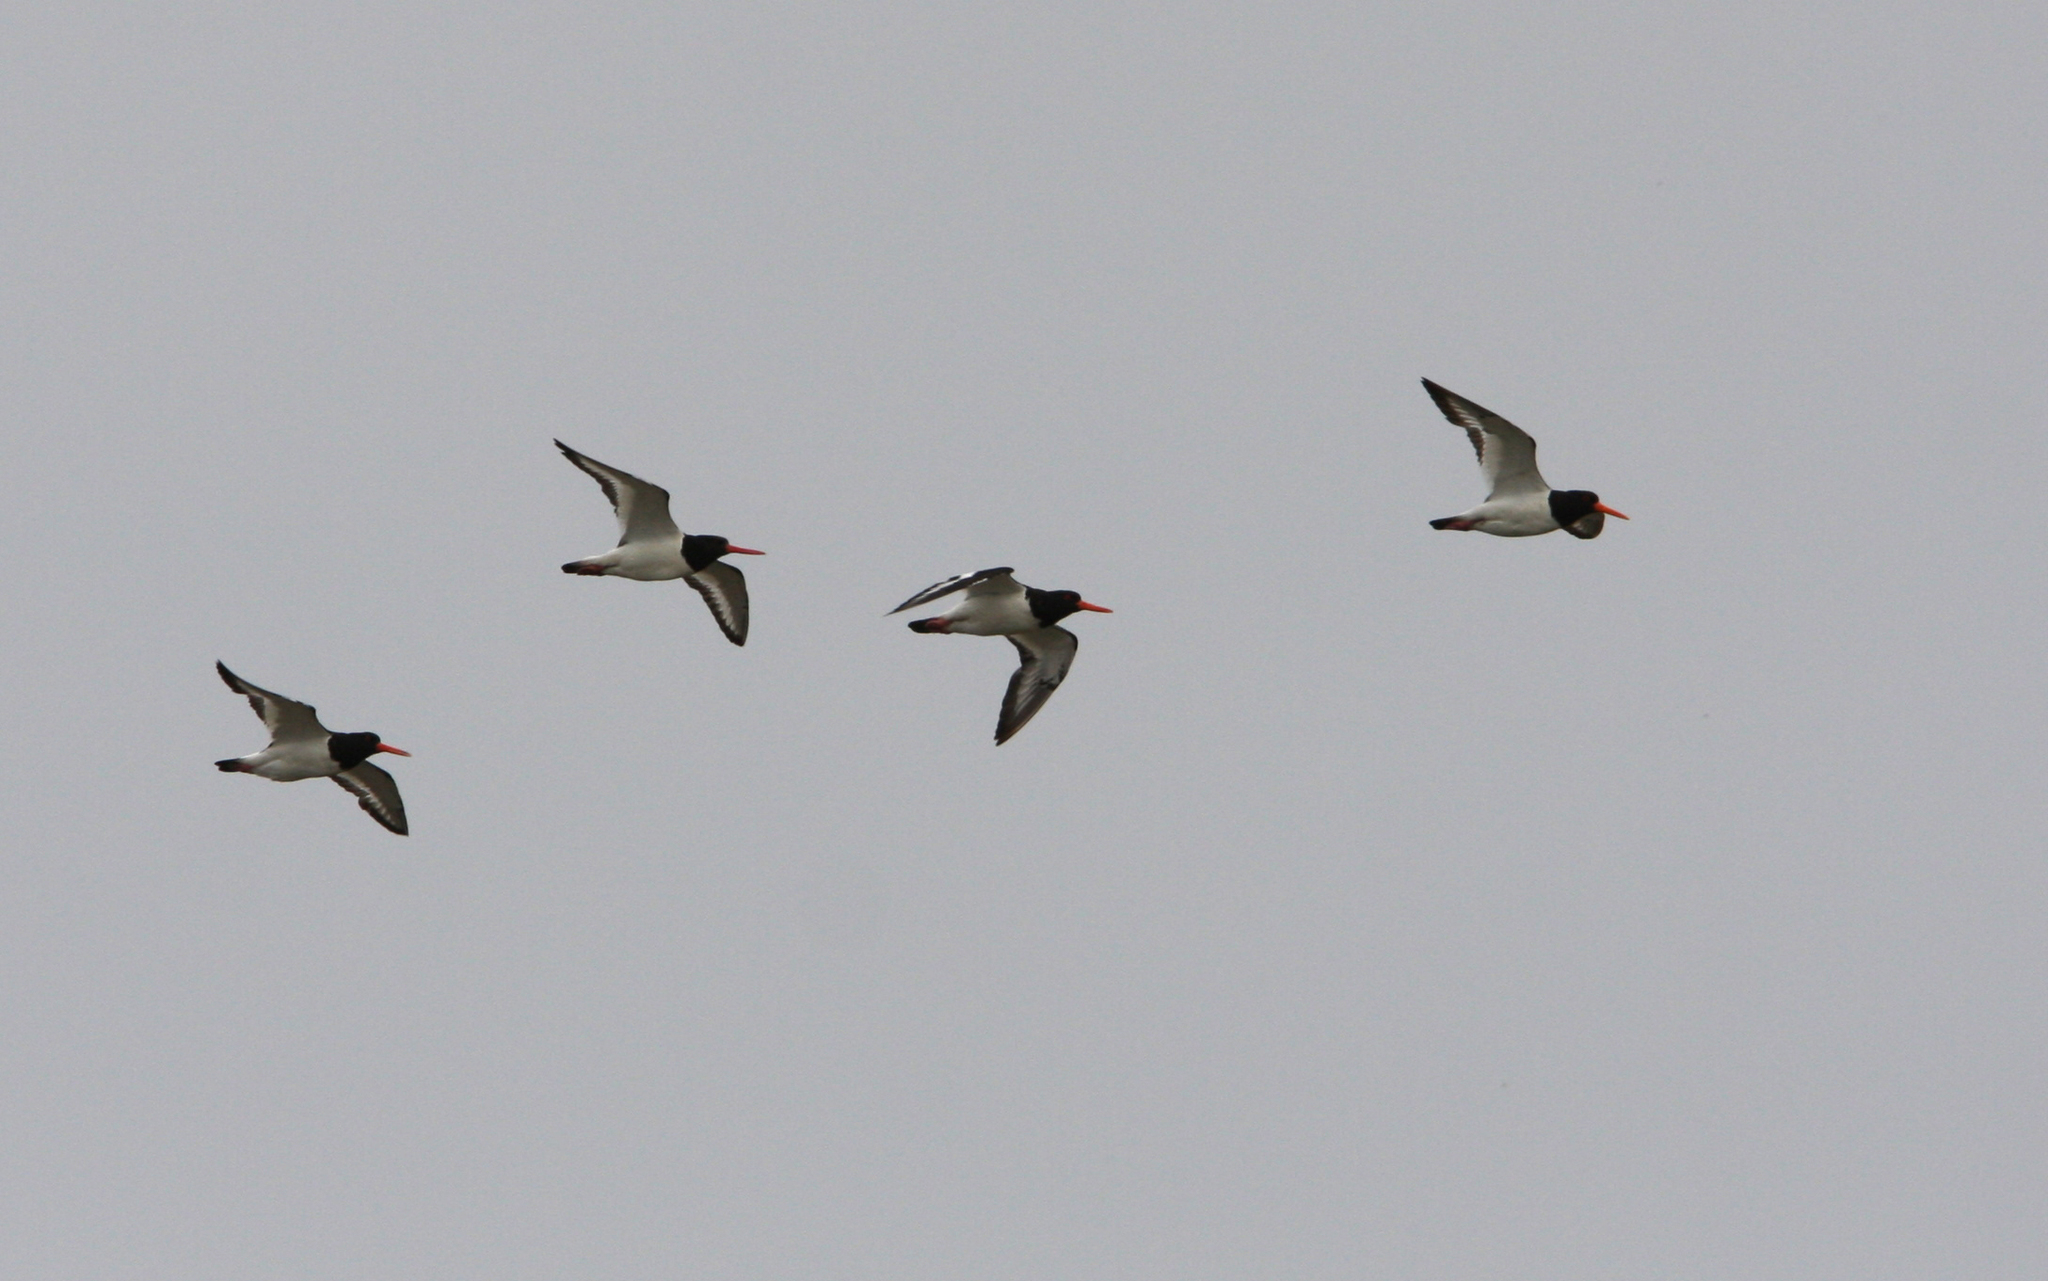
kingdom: Animalia
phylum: Chordata
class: Aves
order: Charadriiformes
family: Haematopodidae
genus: Haematopus
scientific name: Haematopus ostralegus
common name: Eurasian oystercatcher
